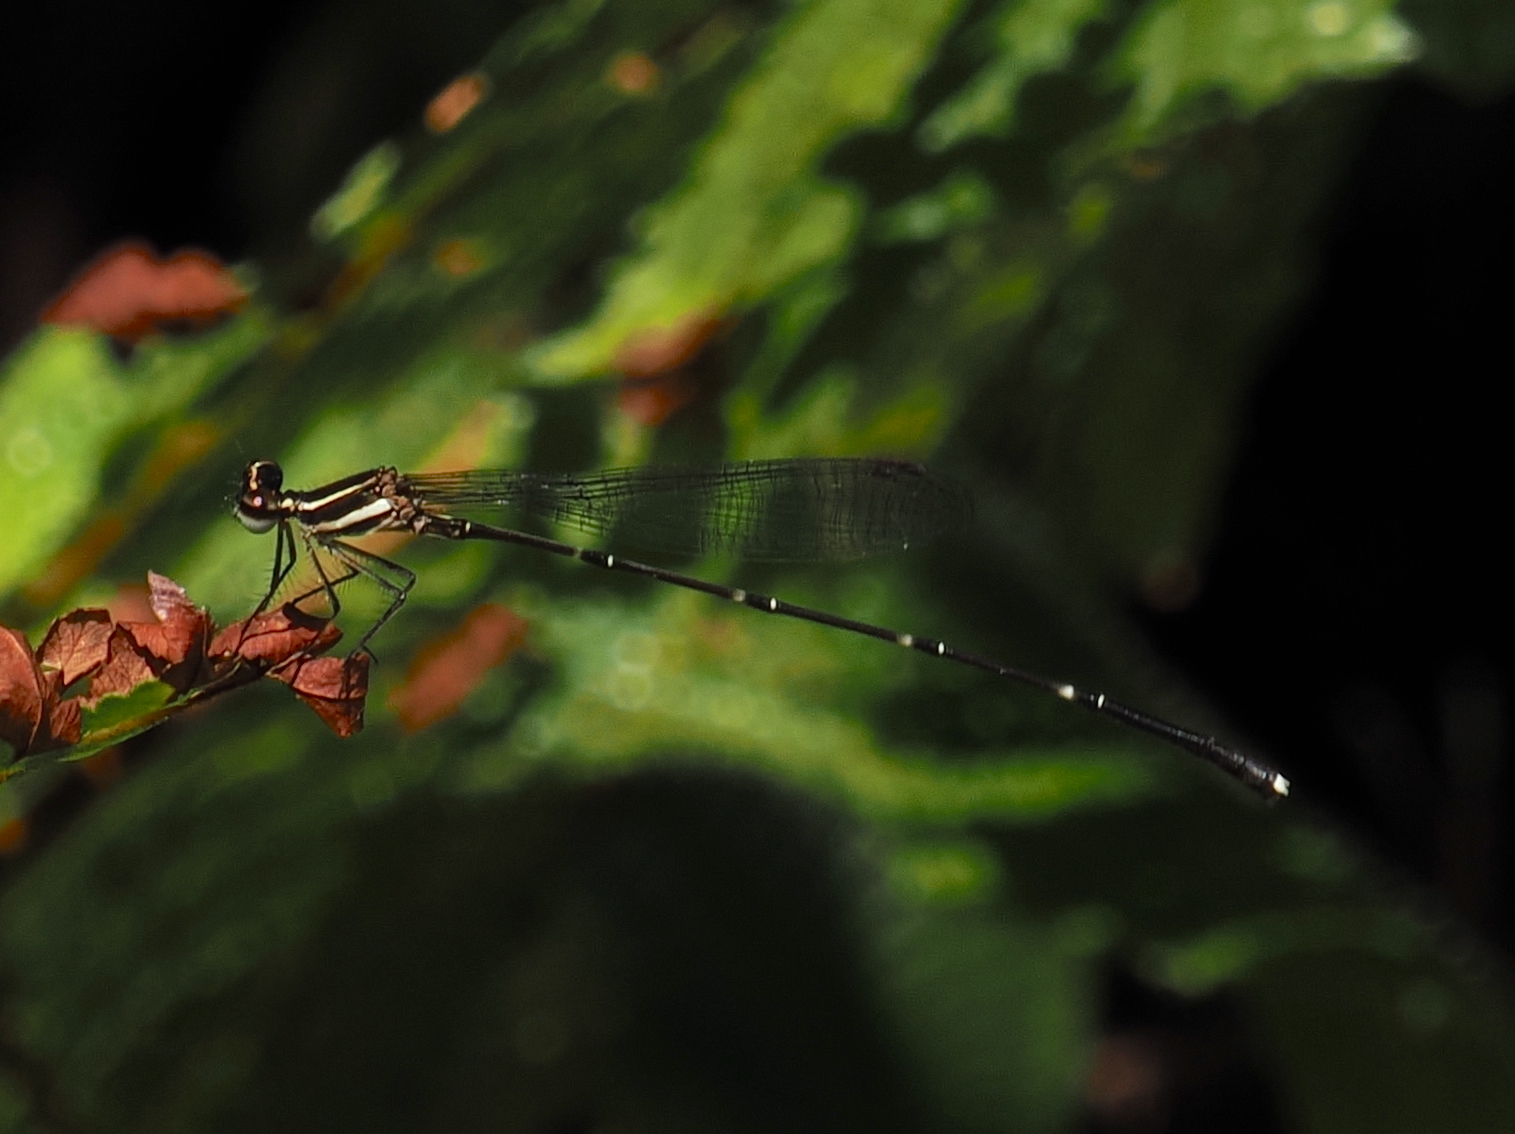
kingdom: Animalia
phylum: Arthropoda
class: Insecta
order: Odonata
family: Platycnemididae
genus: Prodasineura
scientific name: Prodasineura verticalis
